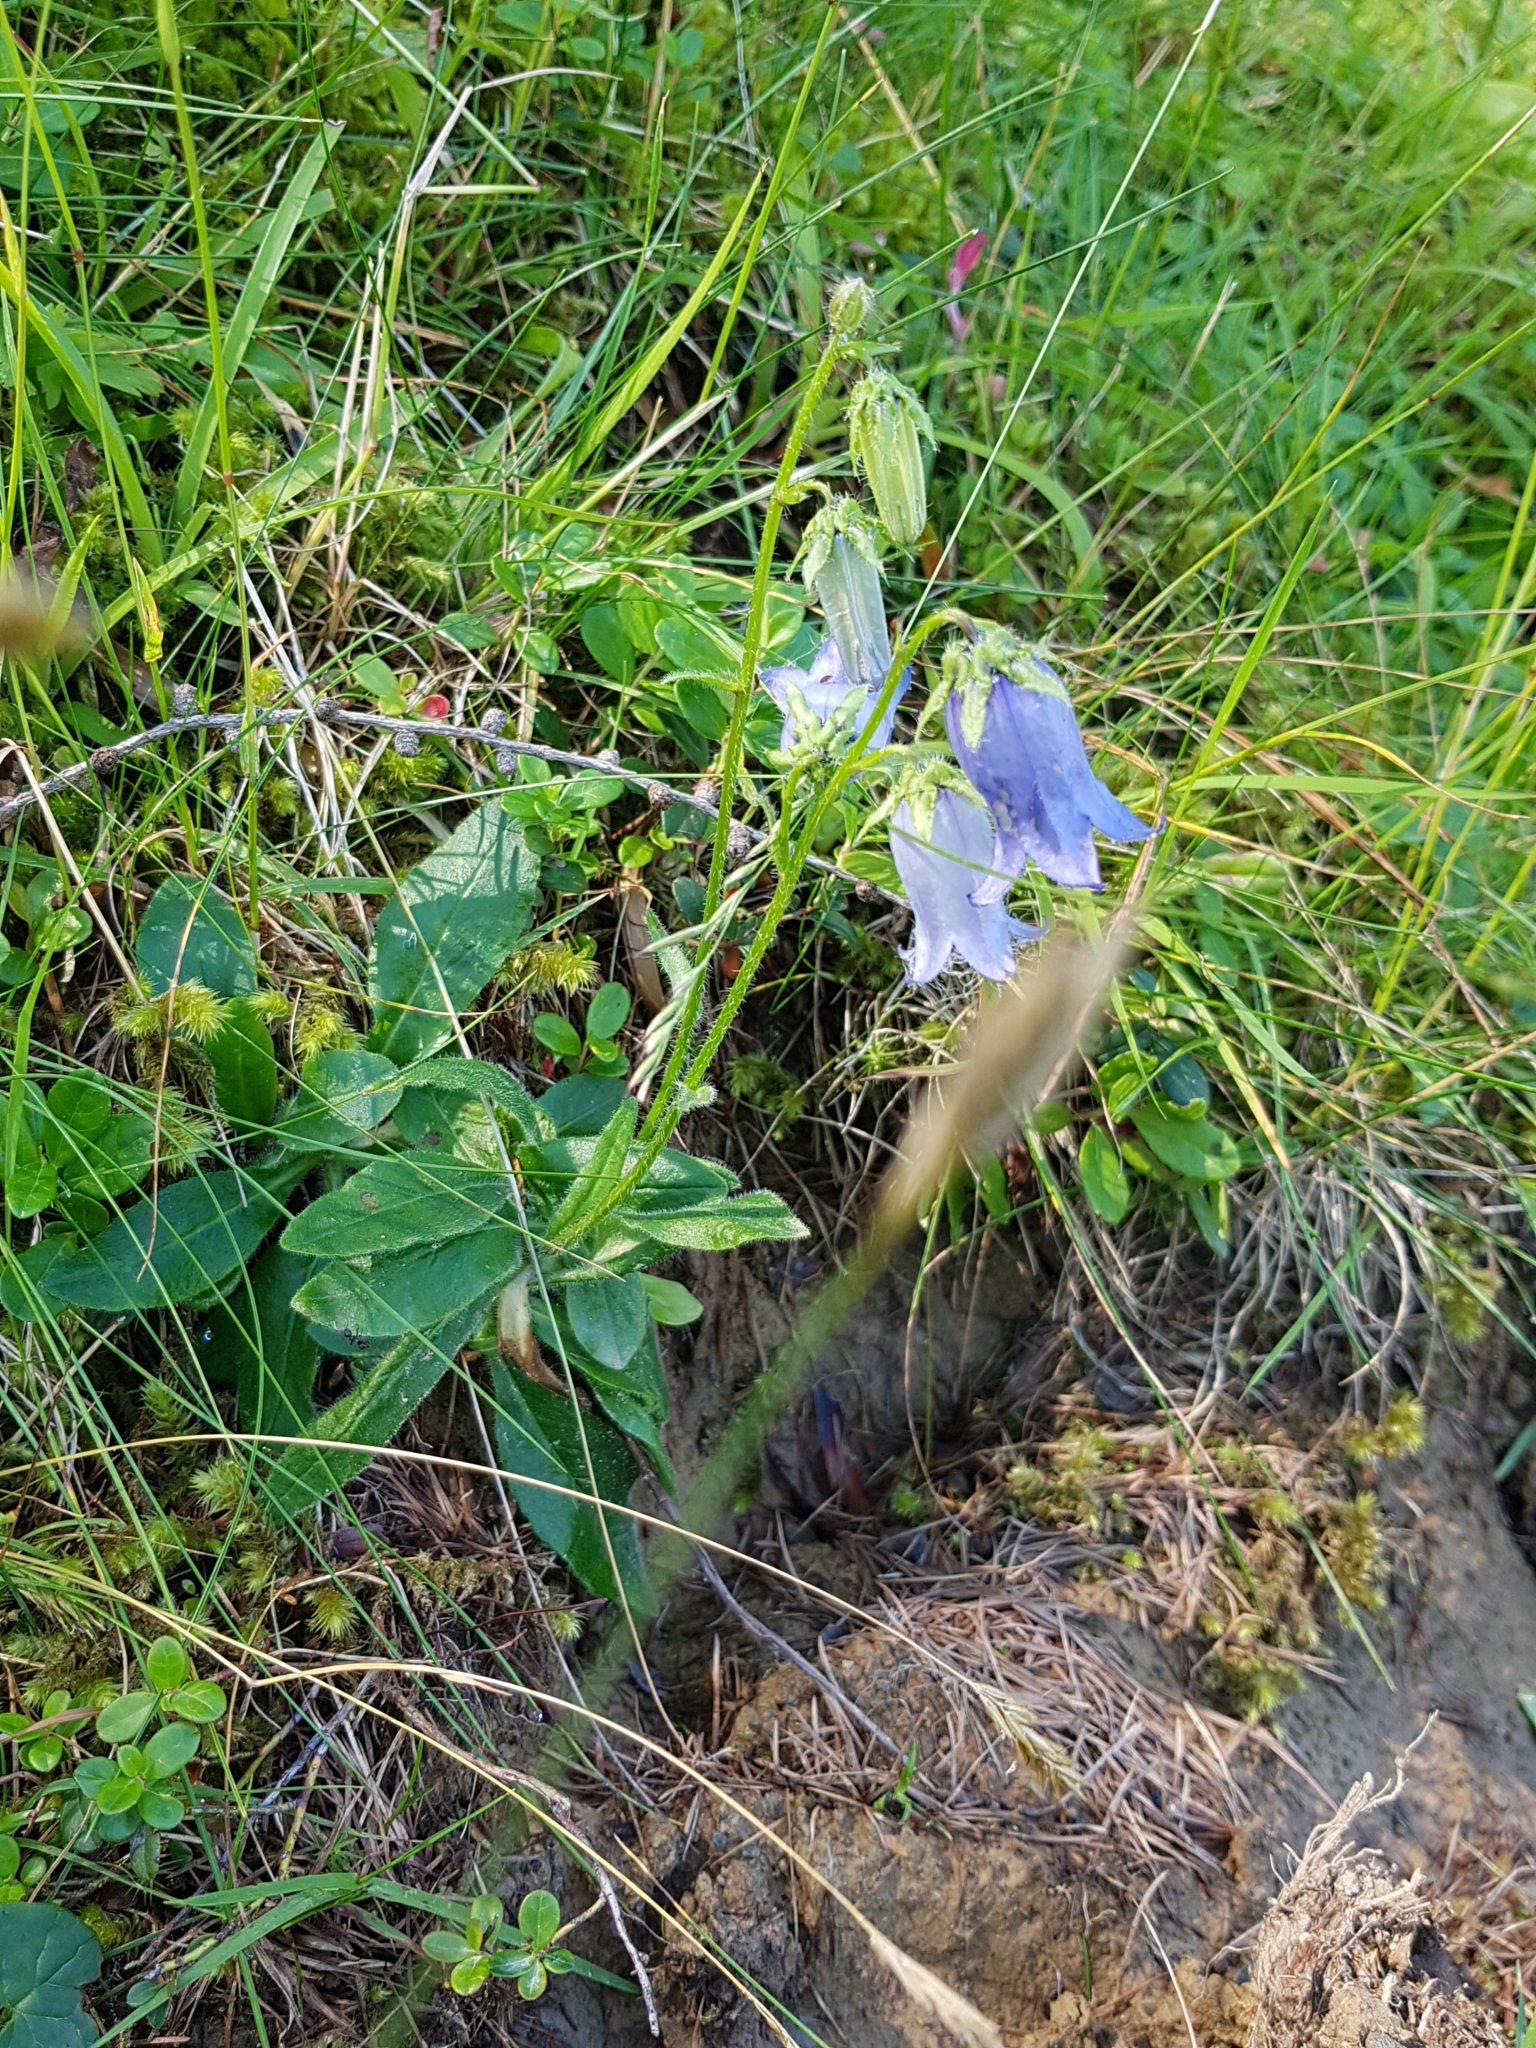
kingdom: Plantae
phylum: Tracheophyta
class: Magnoliopsida
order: Asterales
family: Campanulaceae
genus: Campanula
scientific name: Campanula barbata
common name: Bearded bellflower
